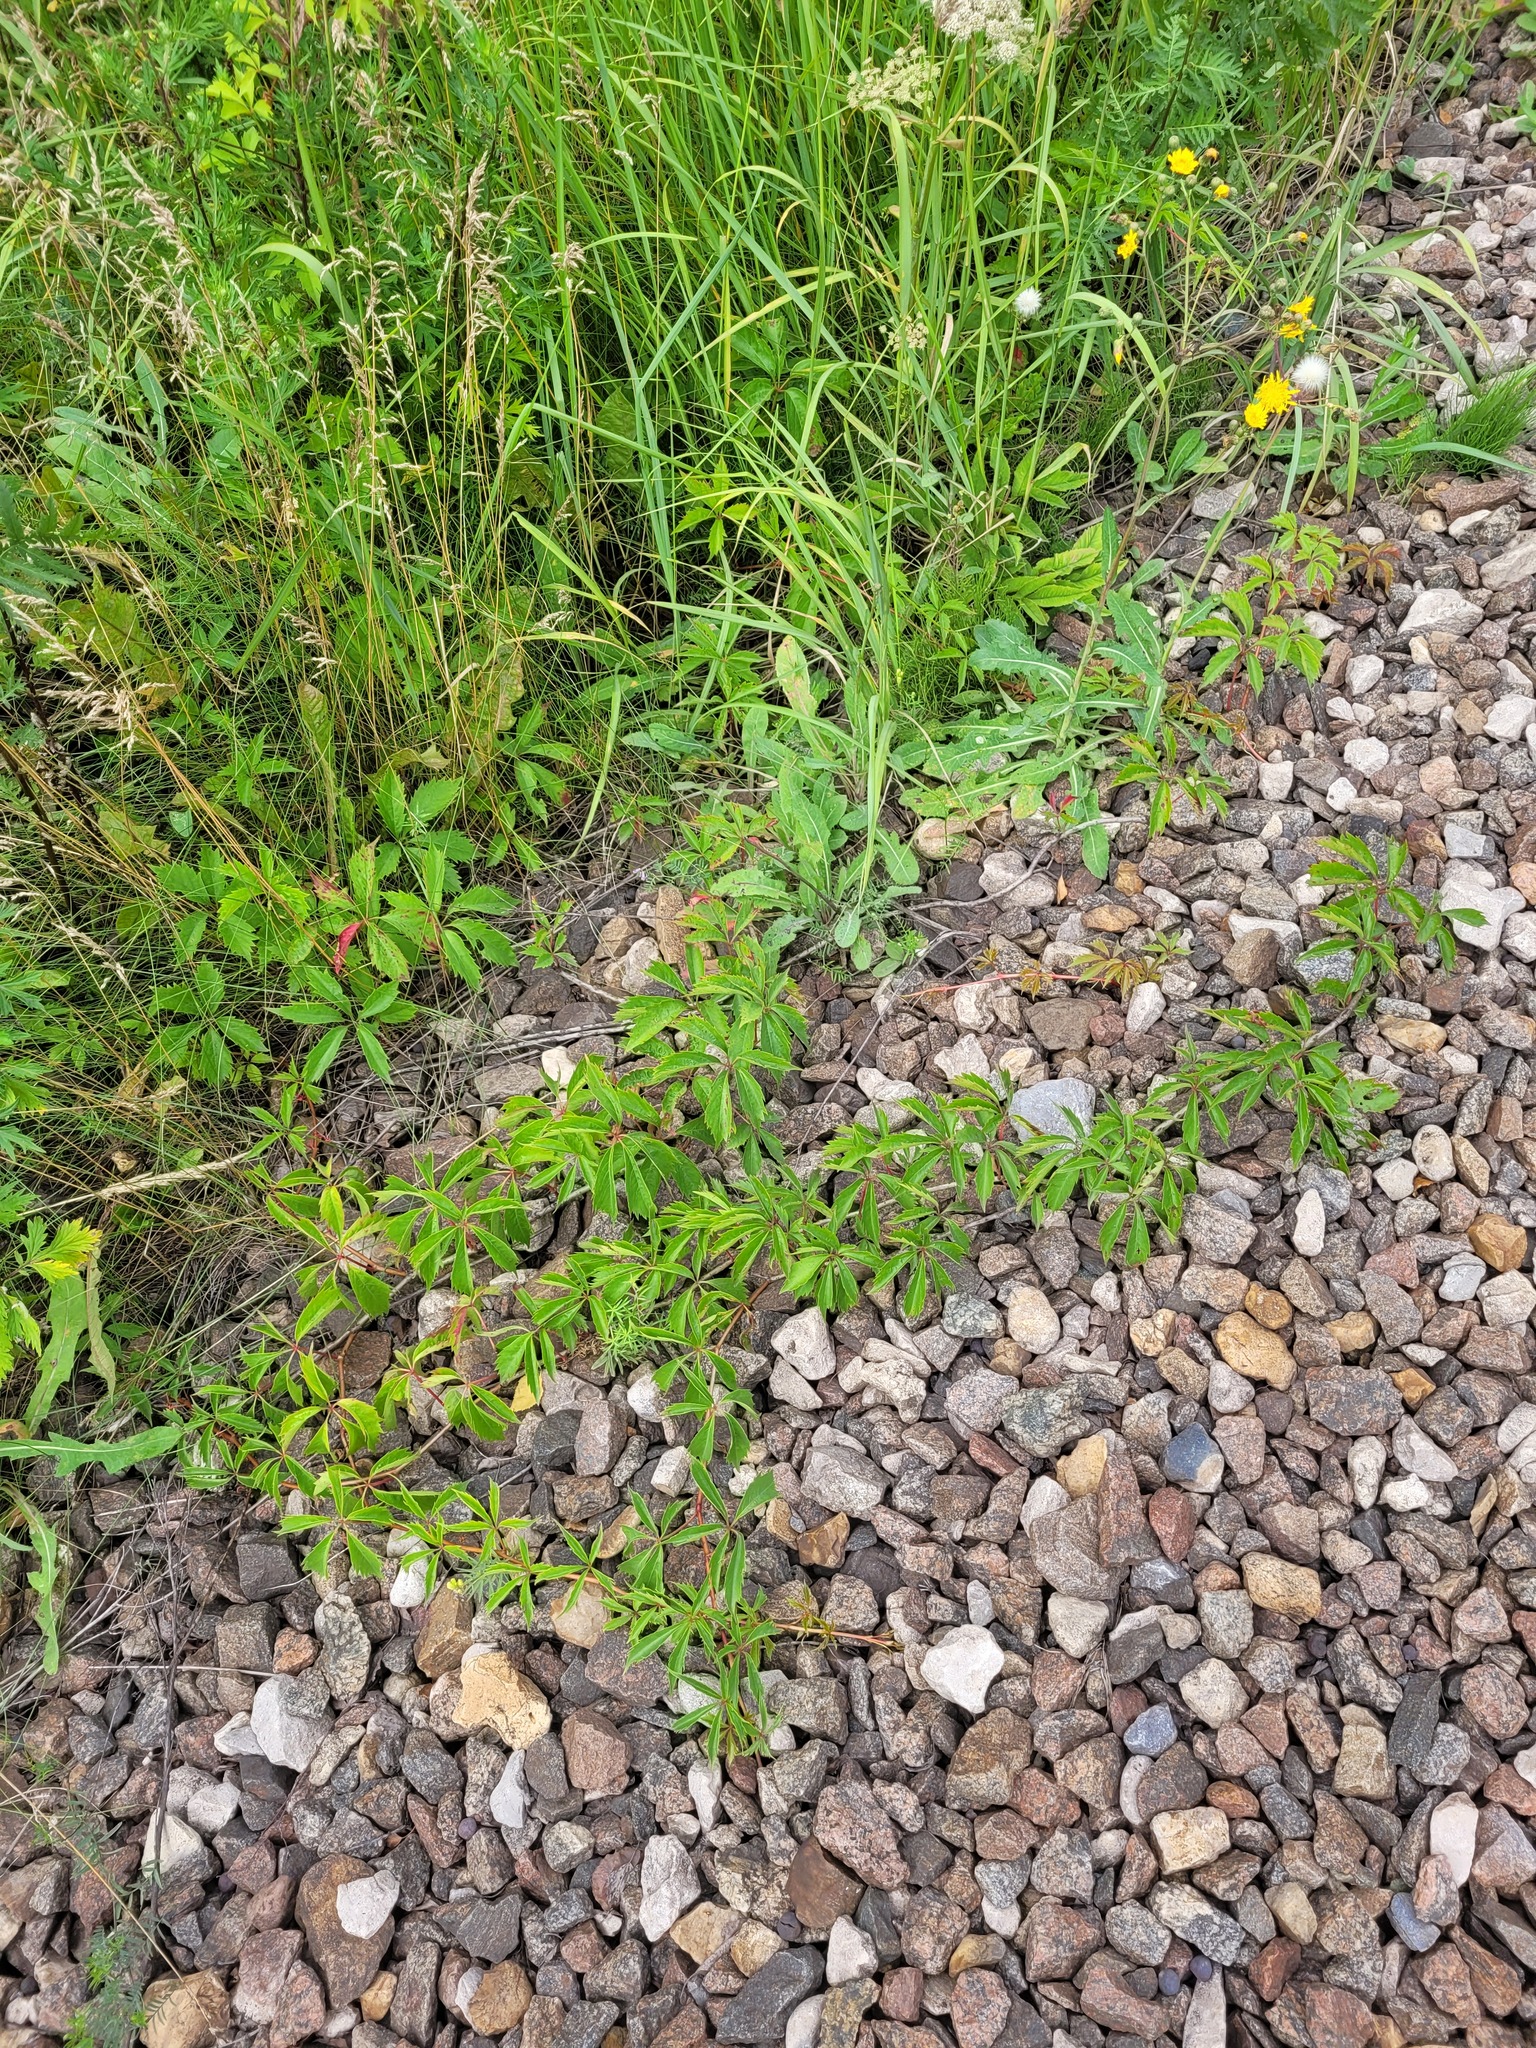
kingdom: Plantae
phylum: Tracheophyta
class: Magnoliopsida
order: Vitales
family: Vitaceae
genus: Parthenocissus
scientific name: Parthenocissus inserta
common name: False virginia-creeper
